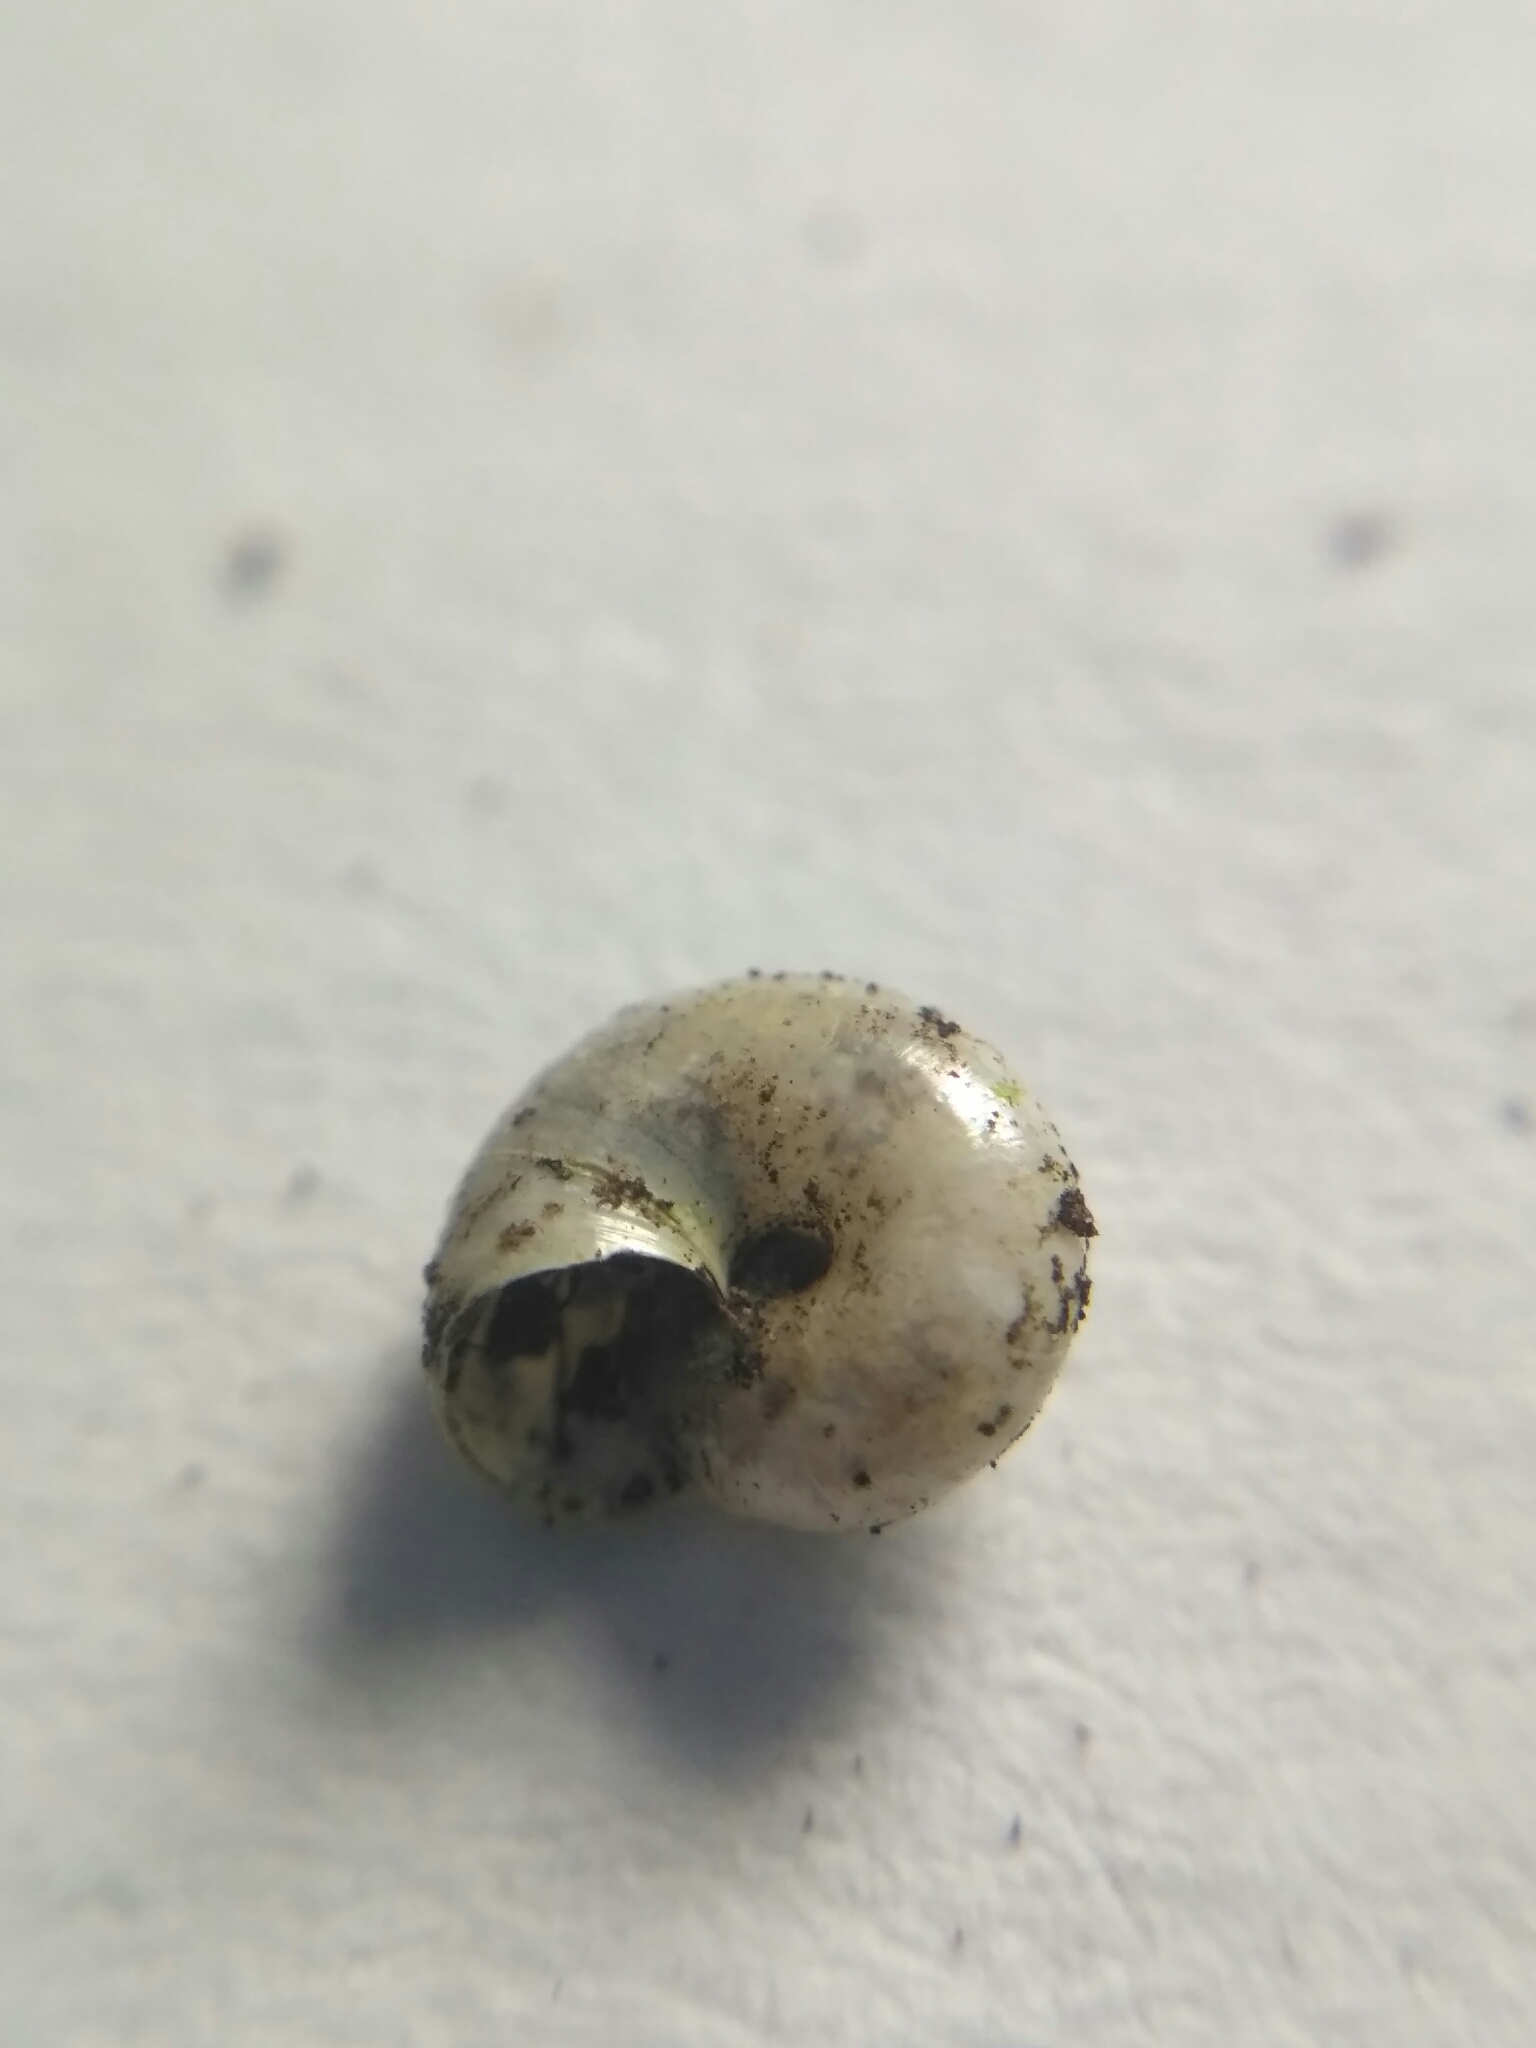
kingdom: Animalia
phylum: Mollusca
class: Gastropoda
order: Stylommatophora
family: Gastrodontidae
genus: Perpolita
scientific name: Perpolita petronella
